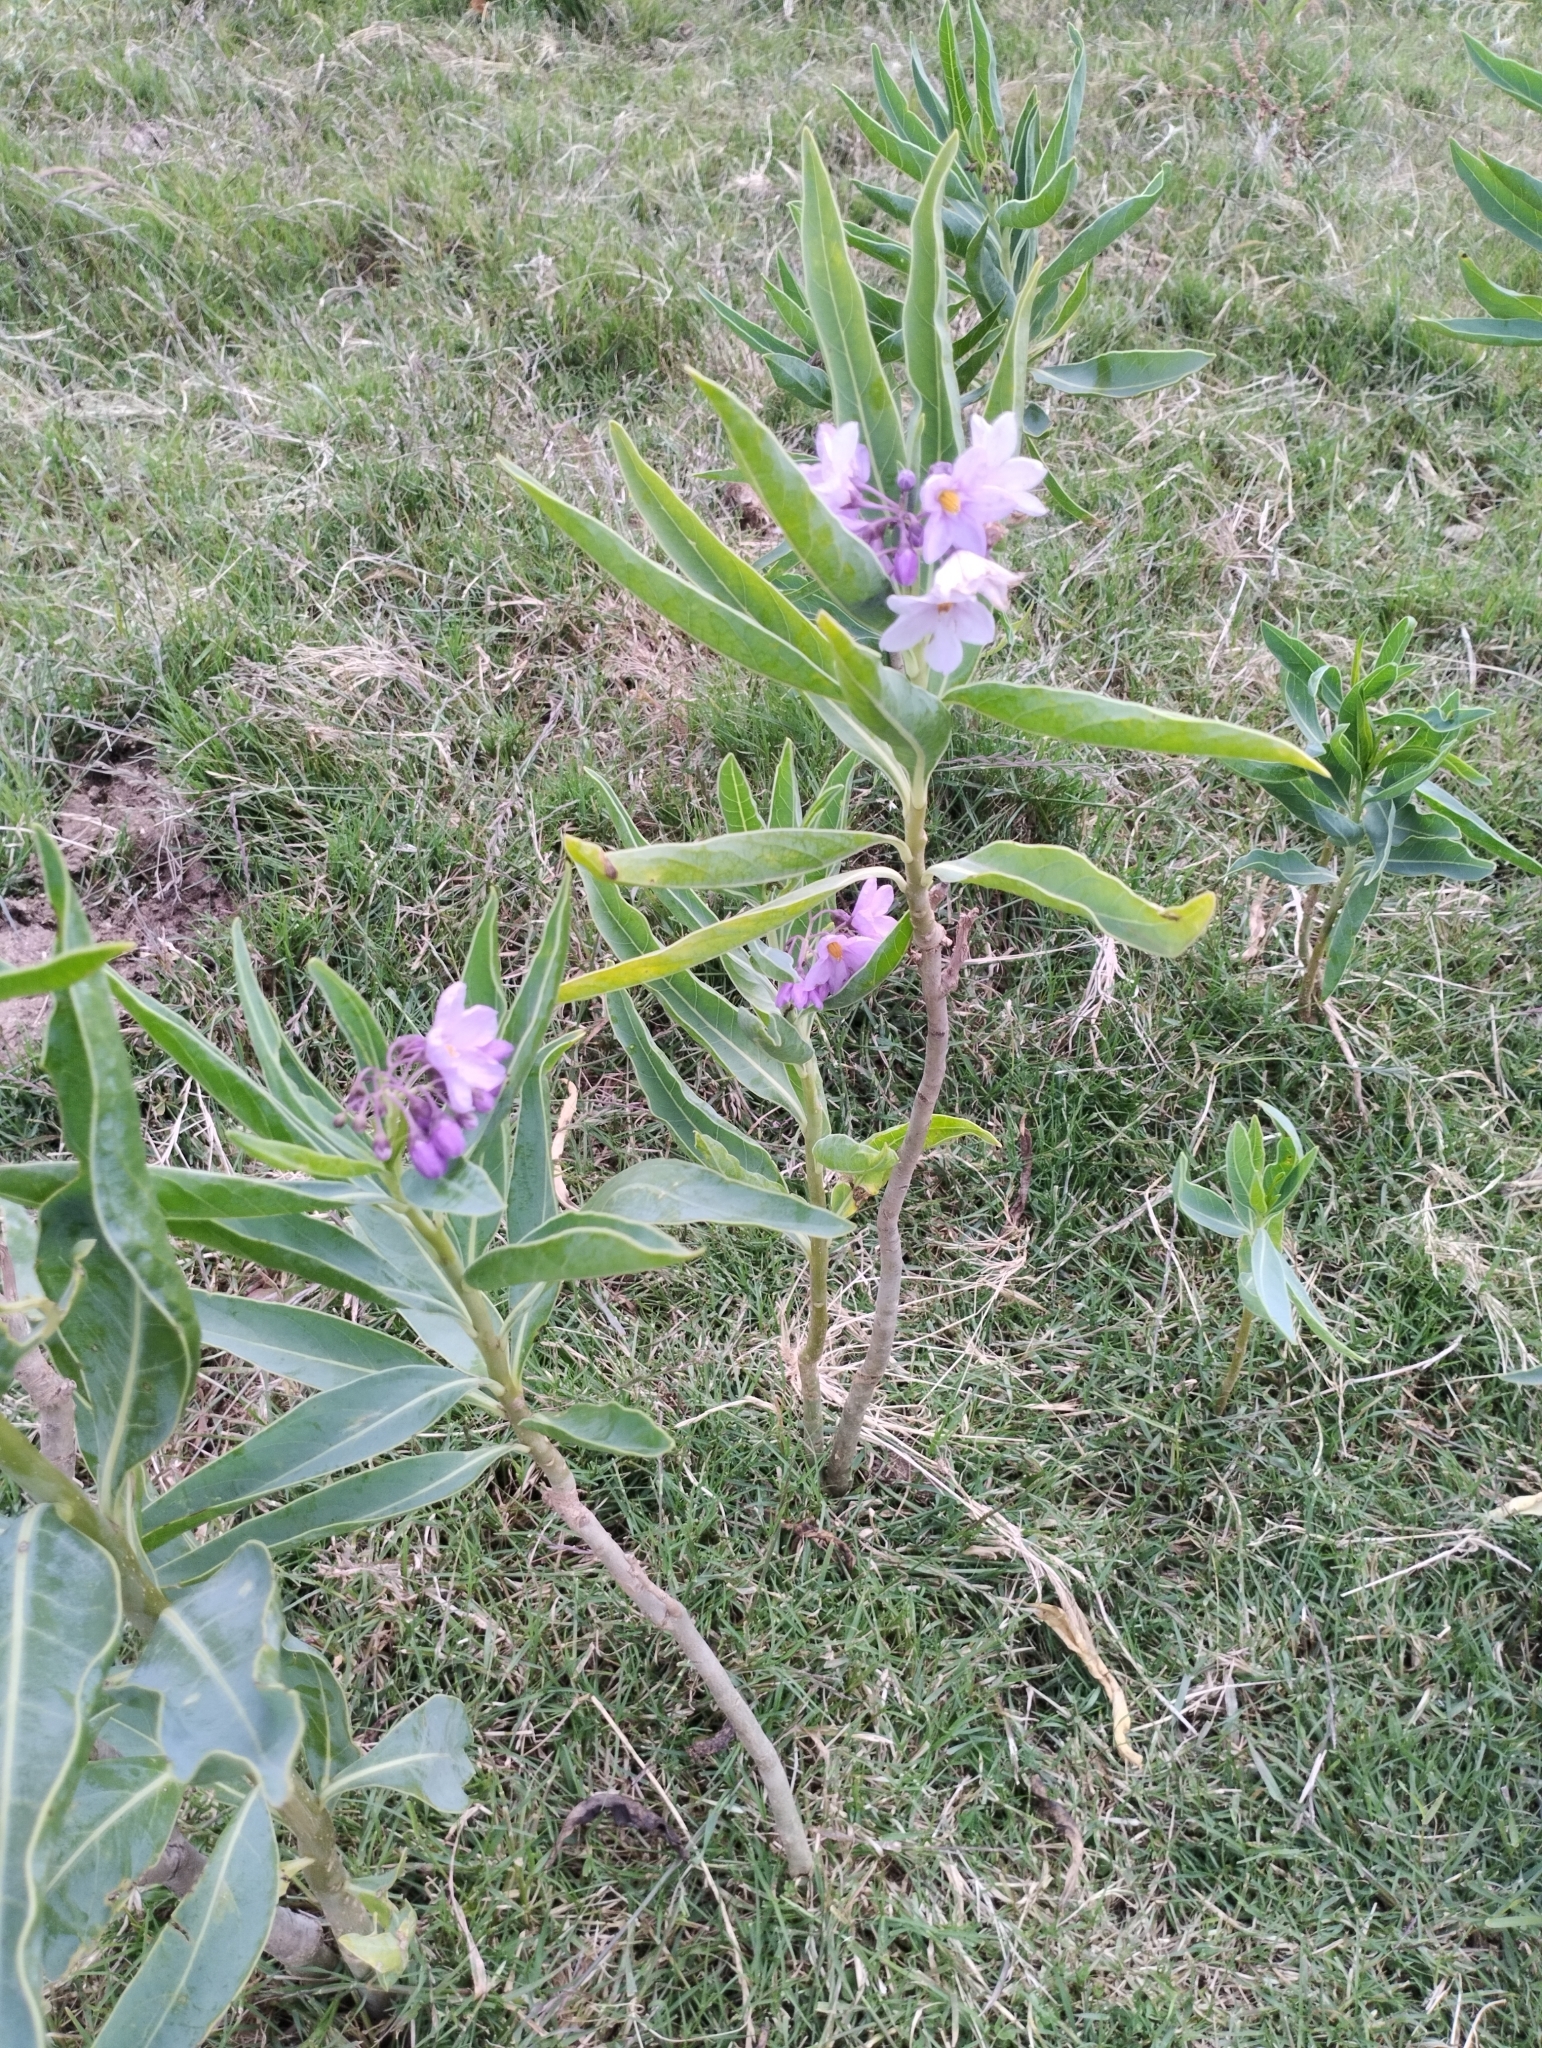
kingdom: Plantae
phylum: Tracheophyta
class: Magnoliopsida
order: Solanales
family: Solanaceae
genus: Solanum
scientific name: Solanum glaucophyllum
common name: Waxyleaf nightshade
